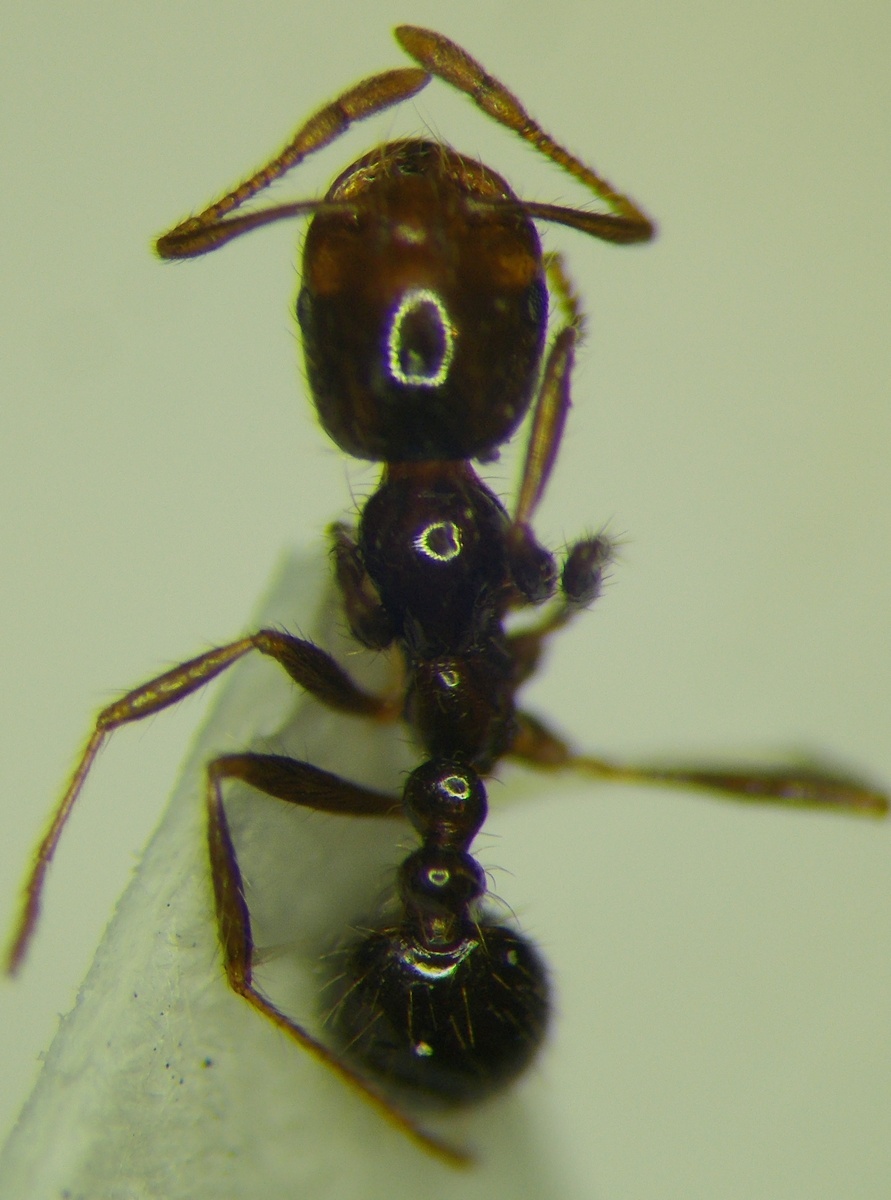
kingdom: Animalia
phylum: Arthropoda
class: Insecta
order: Hymenoptera
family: Formicidae
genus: Solenopsis
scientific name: Solenopsis geminata
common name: Tropical fire ant
